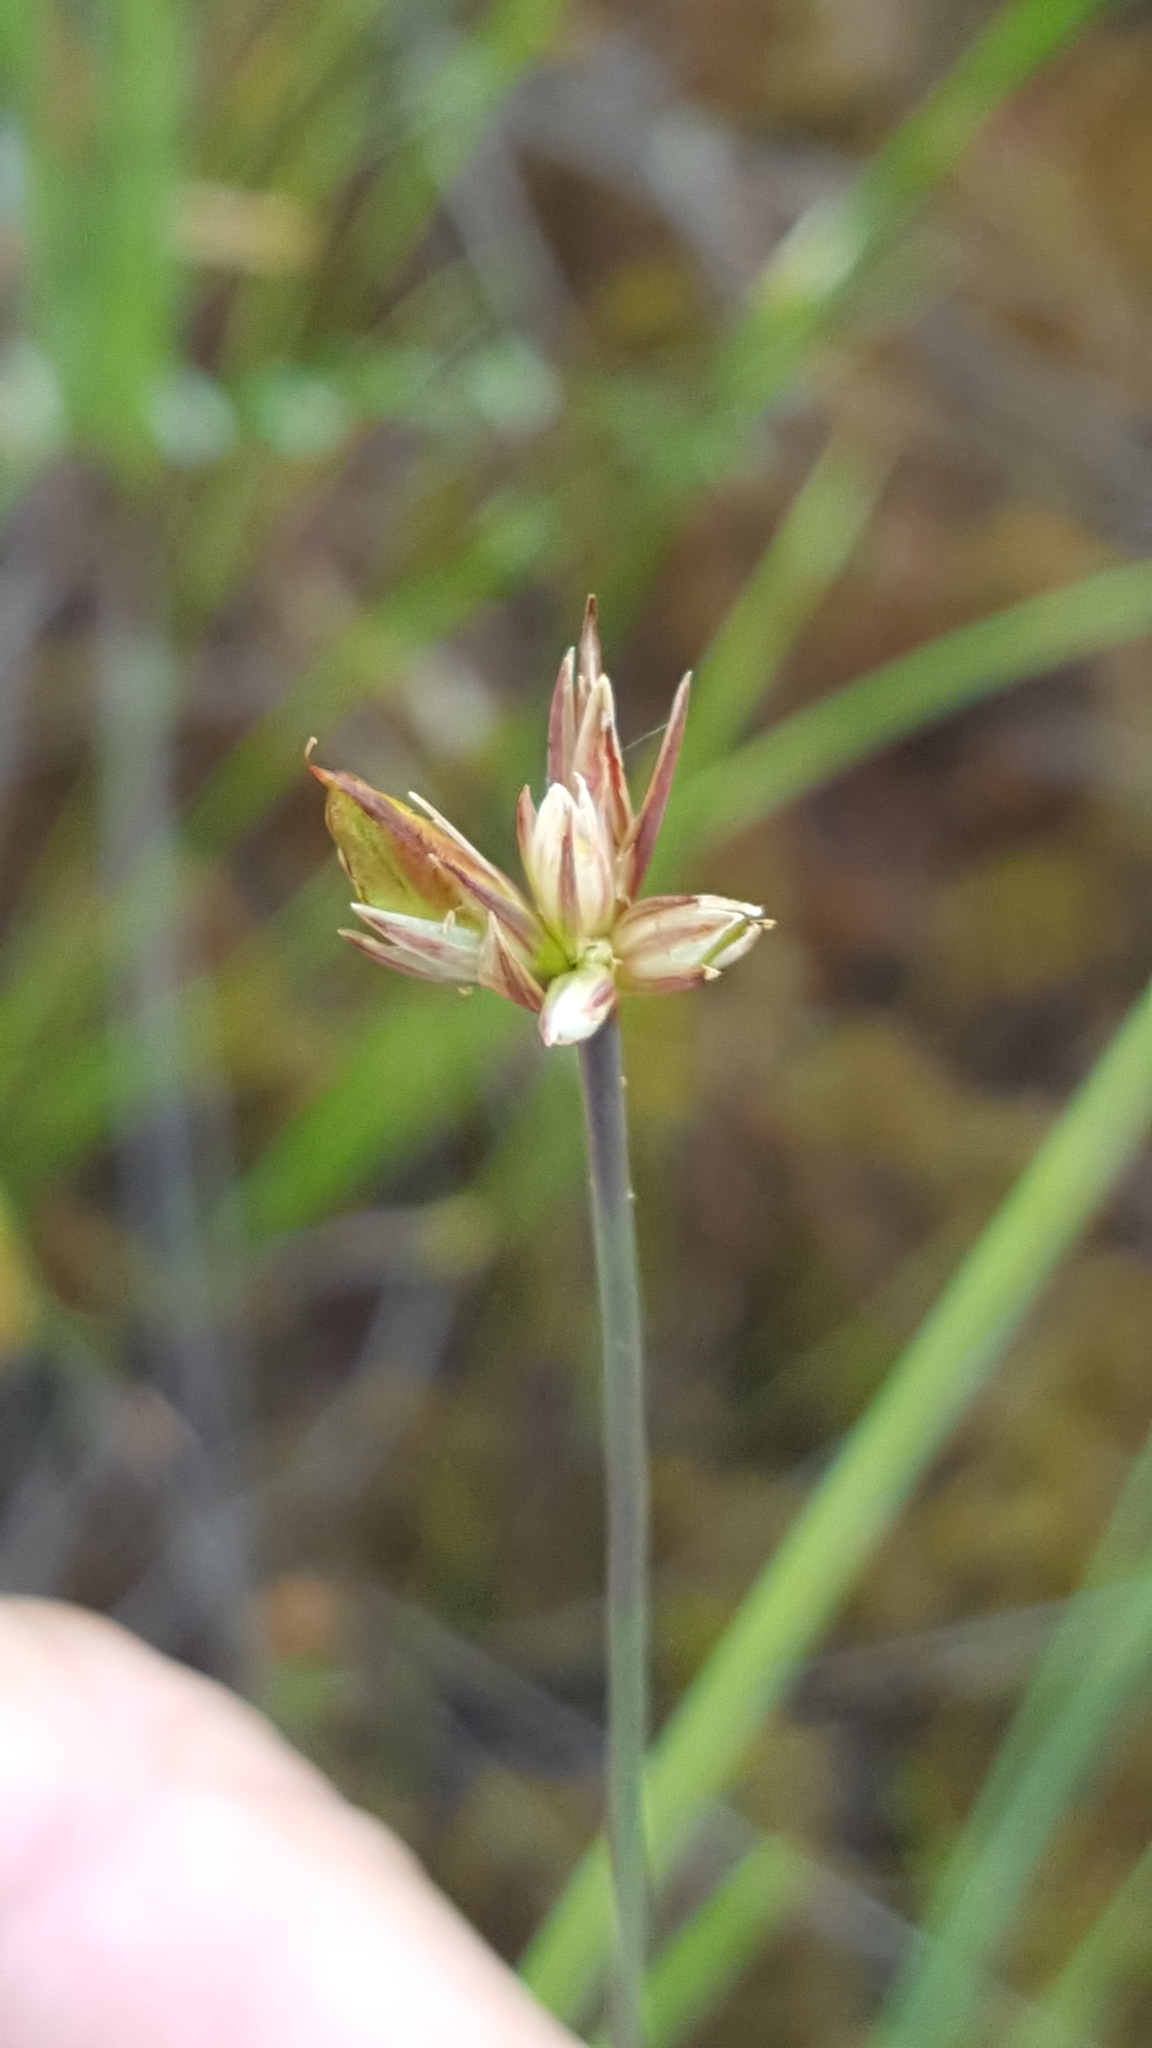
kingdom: Plantae
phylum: Tracheophyta
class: Liliopsida
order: Poales
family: Juncaceae
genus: Juncus
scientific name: Juncus stygius
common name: Bog rush
